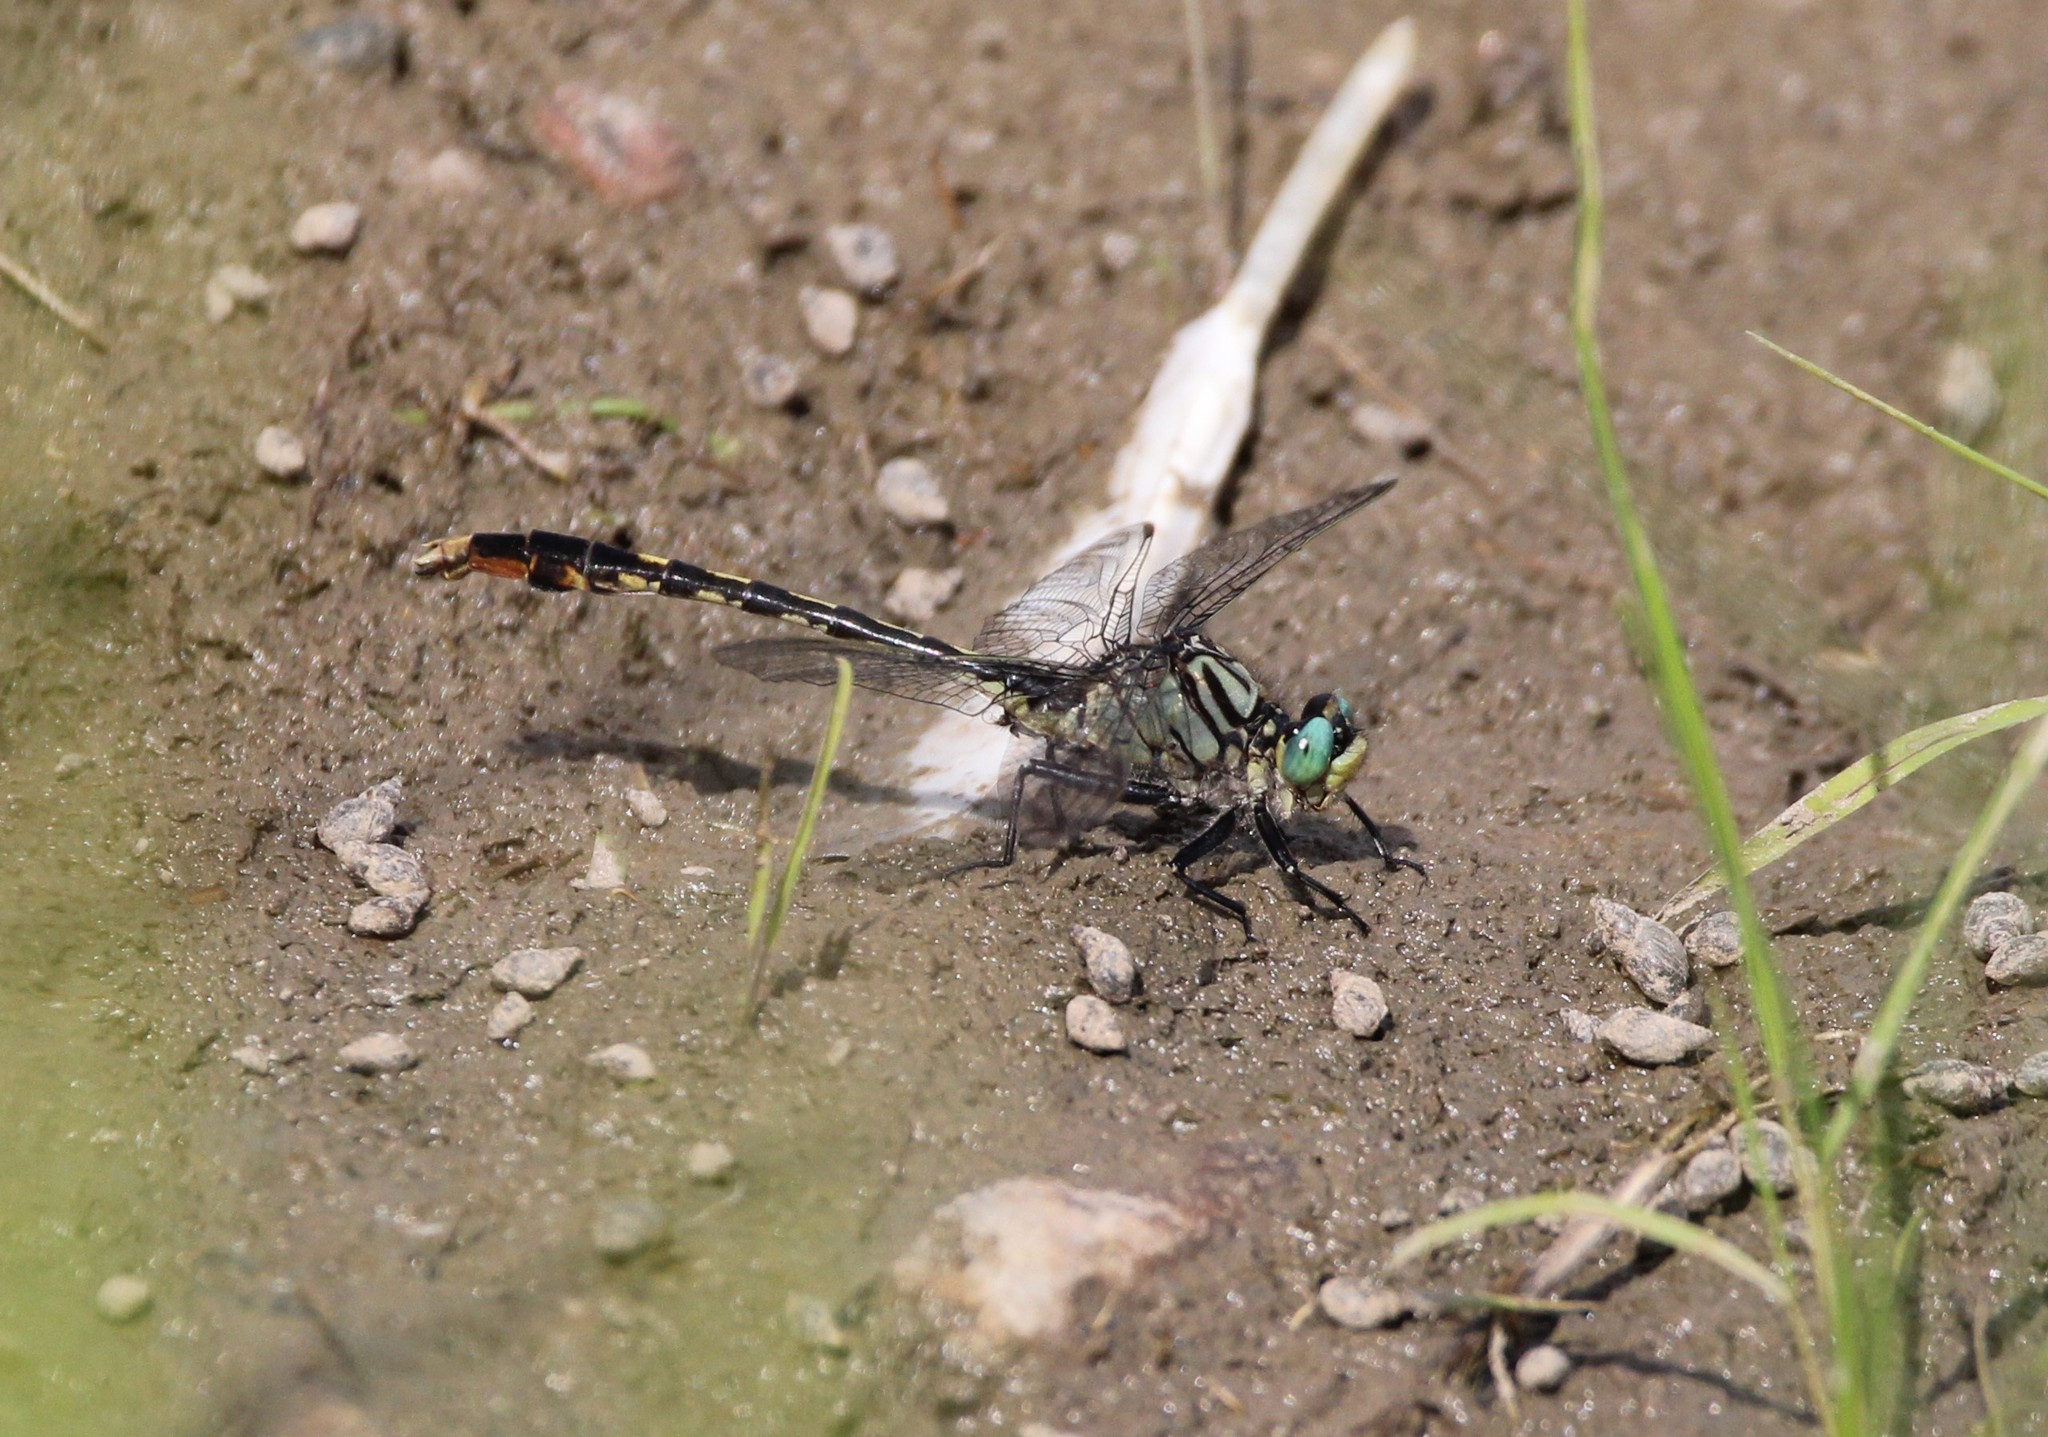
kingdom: Animalia
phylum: Arthropoda
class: Insecta
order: Odonata
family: Gomphidae
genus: Arigomphus
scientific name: Arigomphus villosipes
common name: Unicorn clubtail
